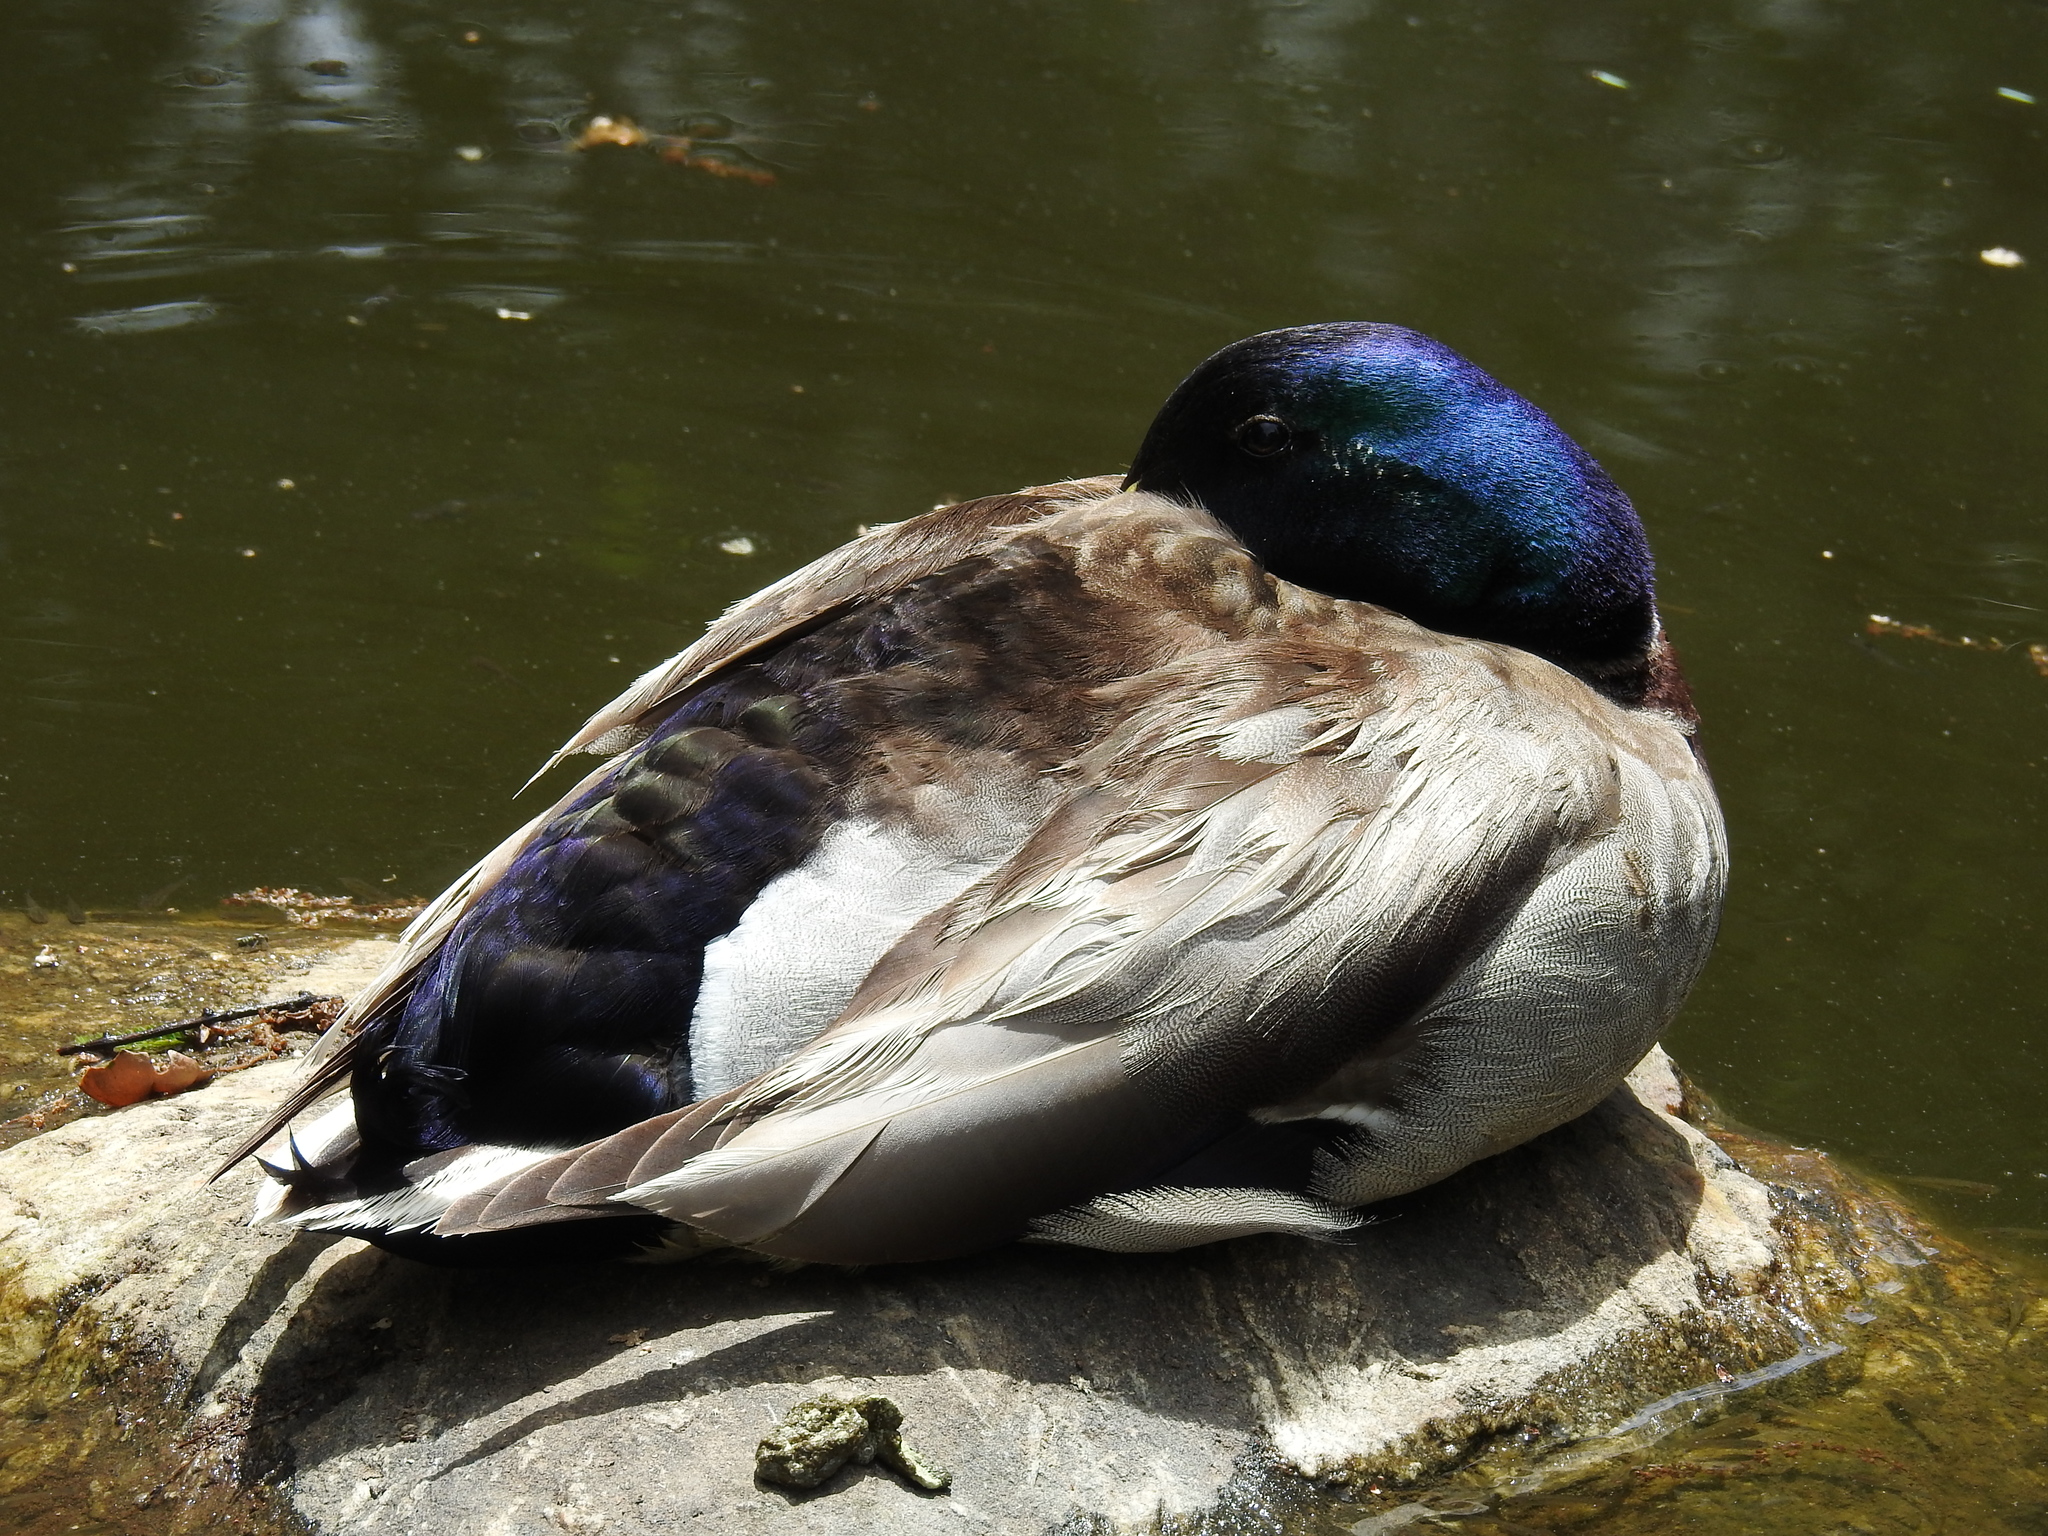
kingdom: Animalia
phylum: Chordata
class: Aves
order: Anseriformes
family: Anatidae
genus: Anas
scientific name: Anas platyrhynchos
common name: Mallard
